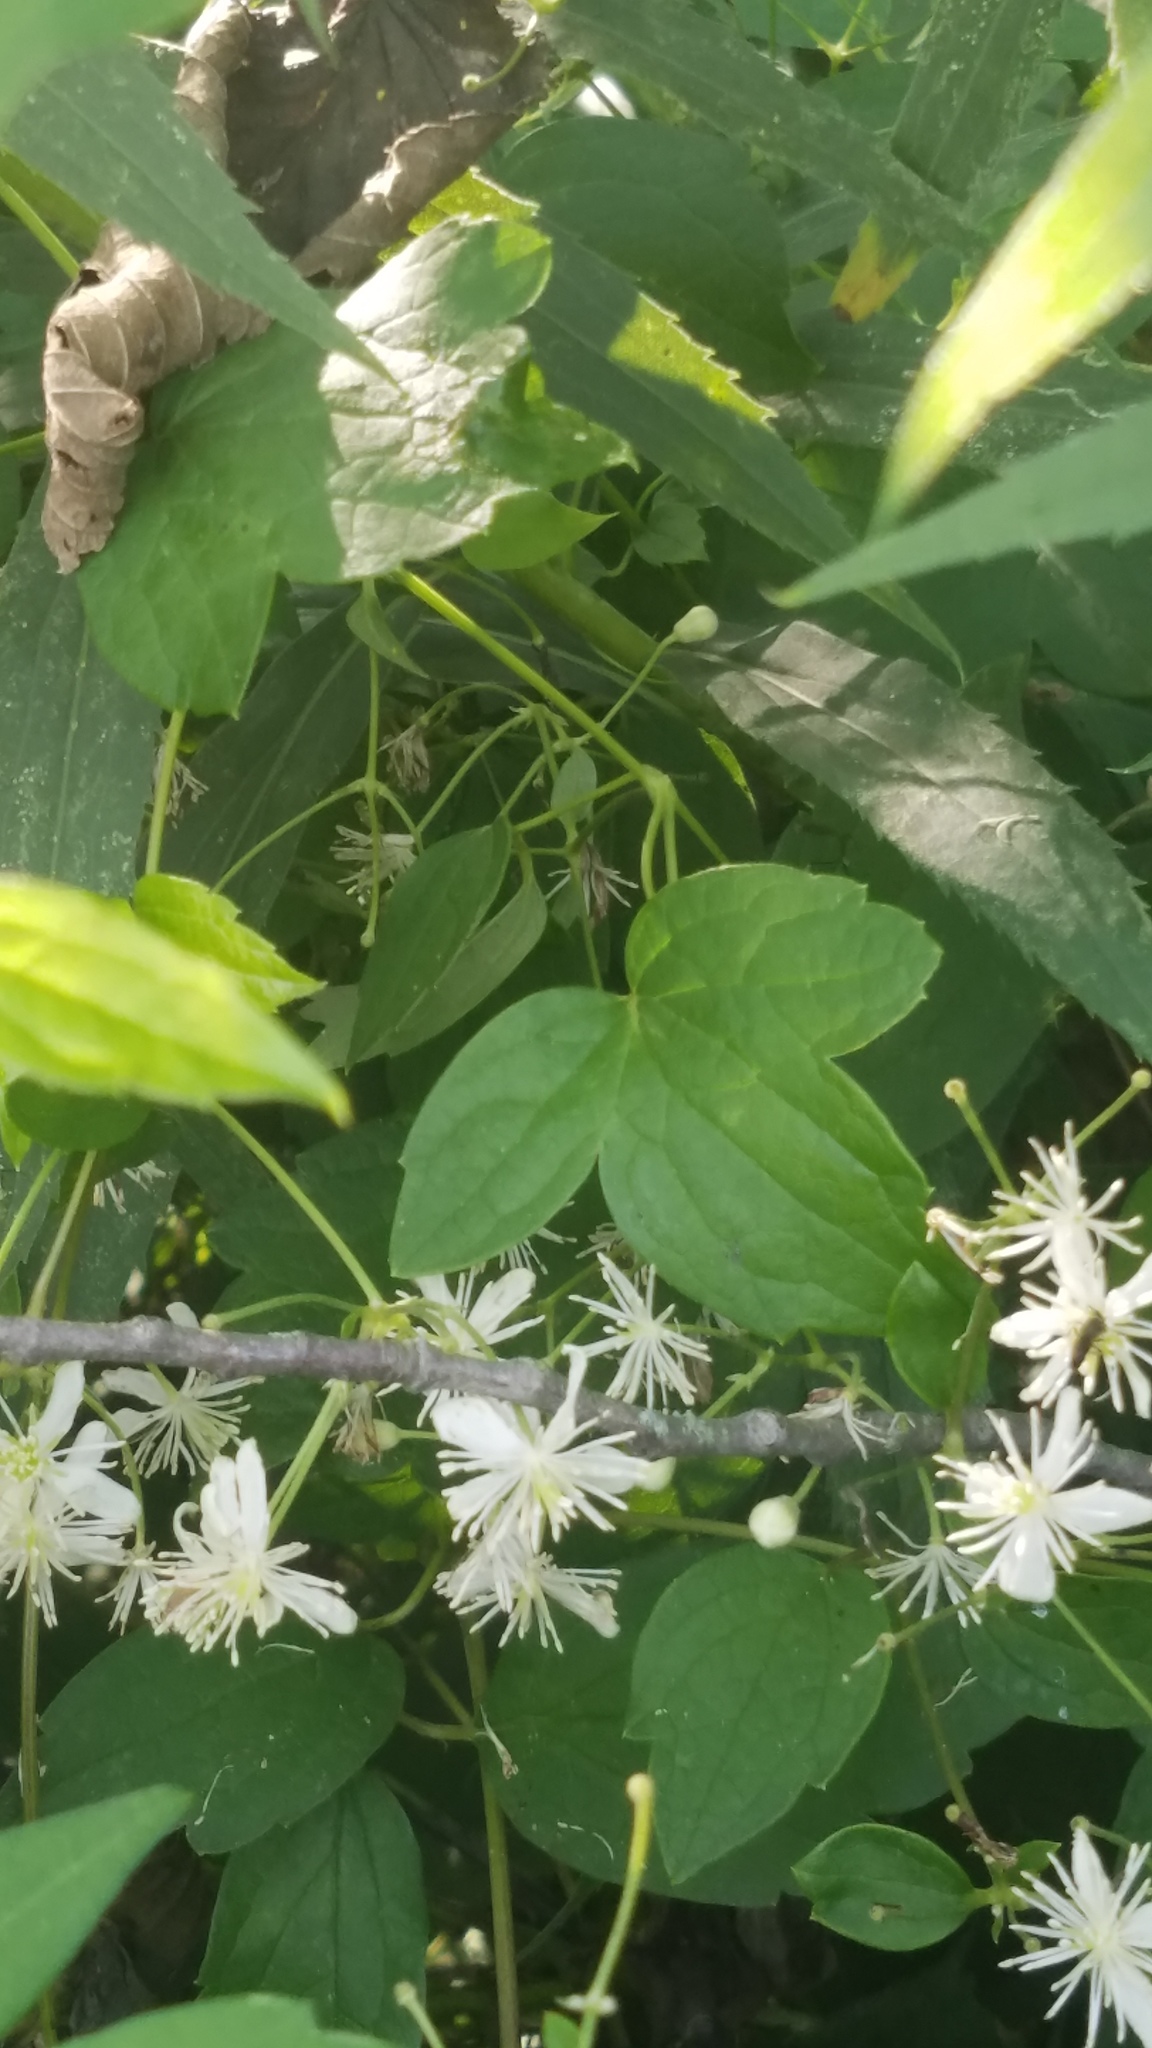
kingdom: Plantae
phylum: Tracheophyta
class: Magnoliopsida
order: Ranunculales
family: Ranunculaceae
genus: Clematis
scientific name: Clematis virginiana
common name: Virgin's-bower
